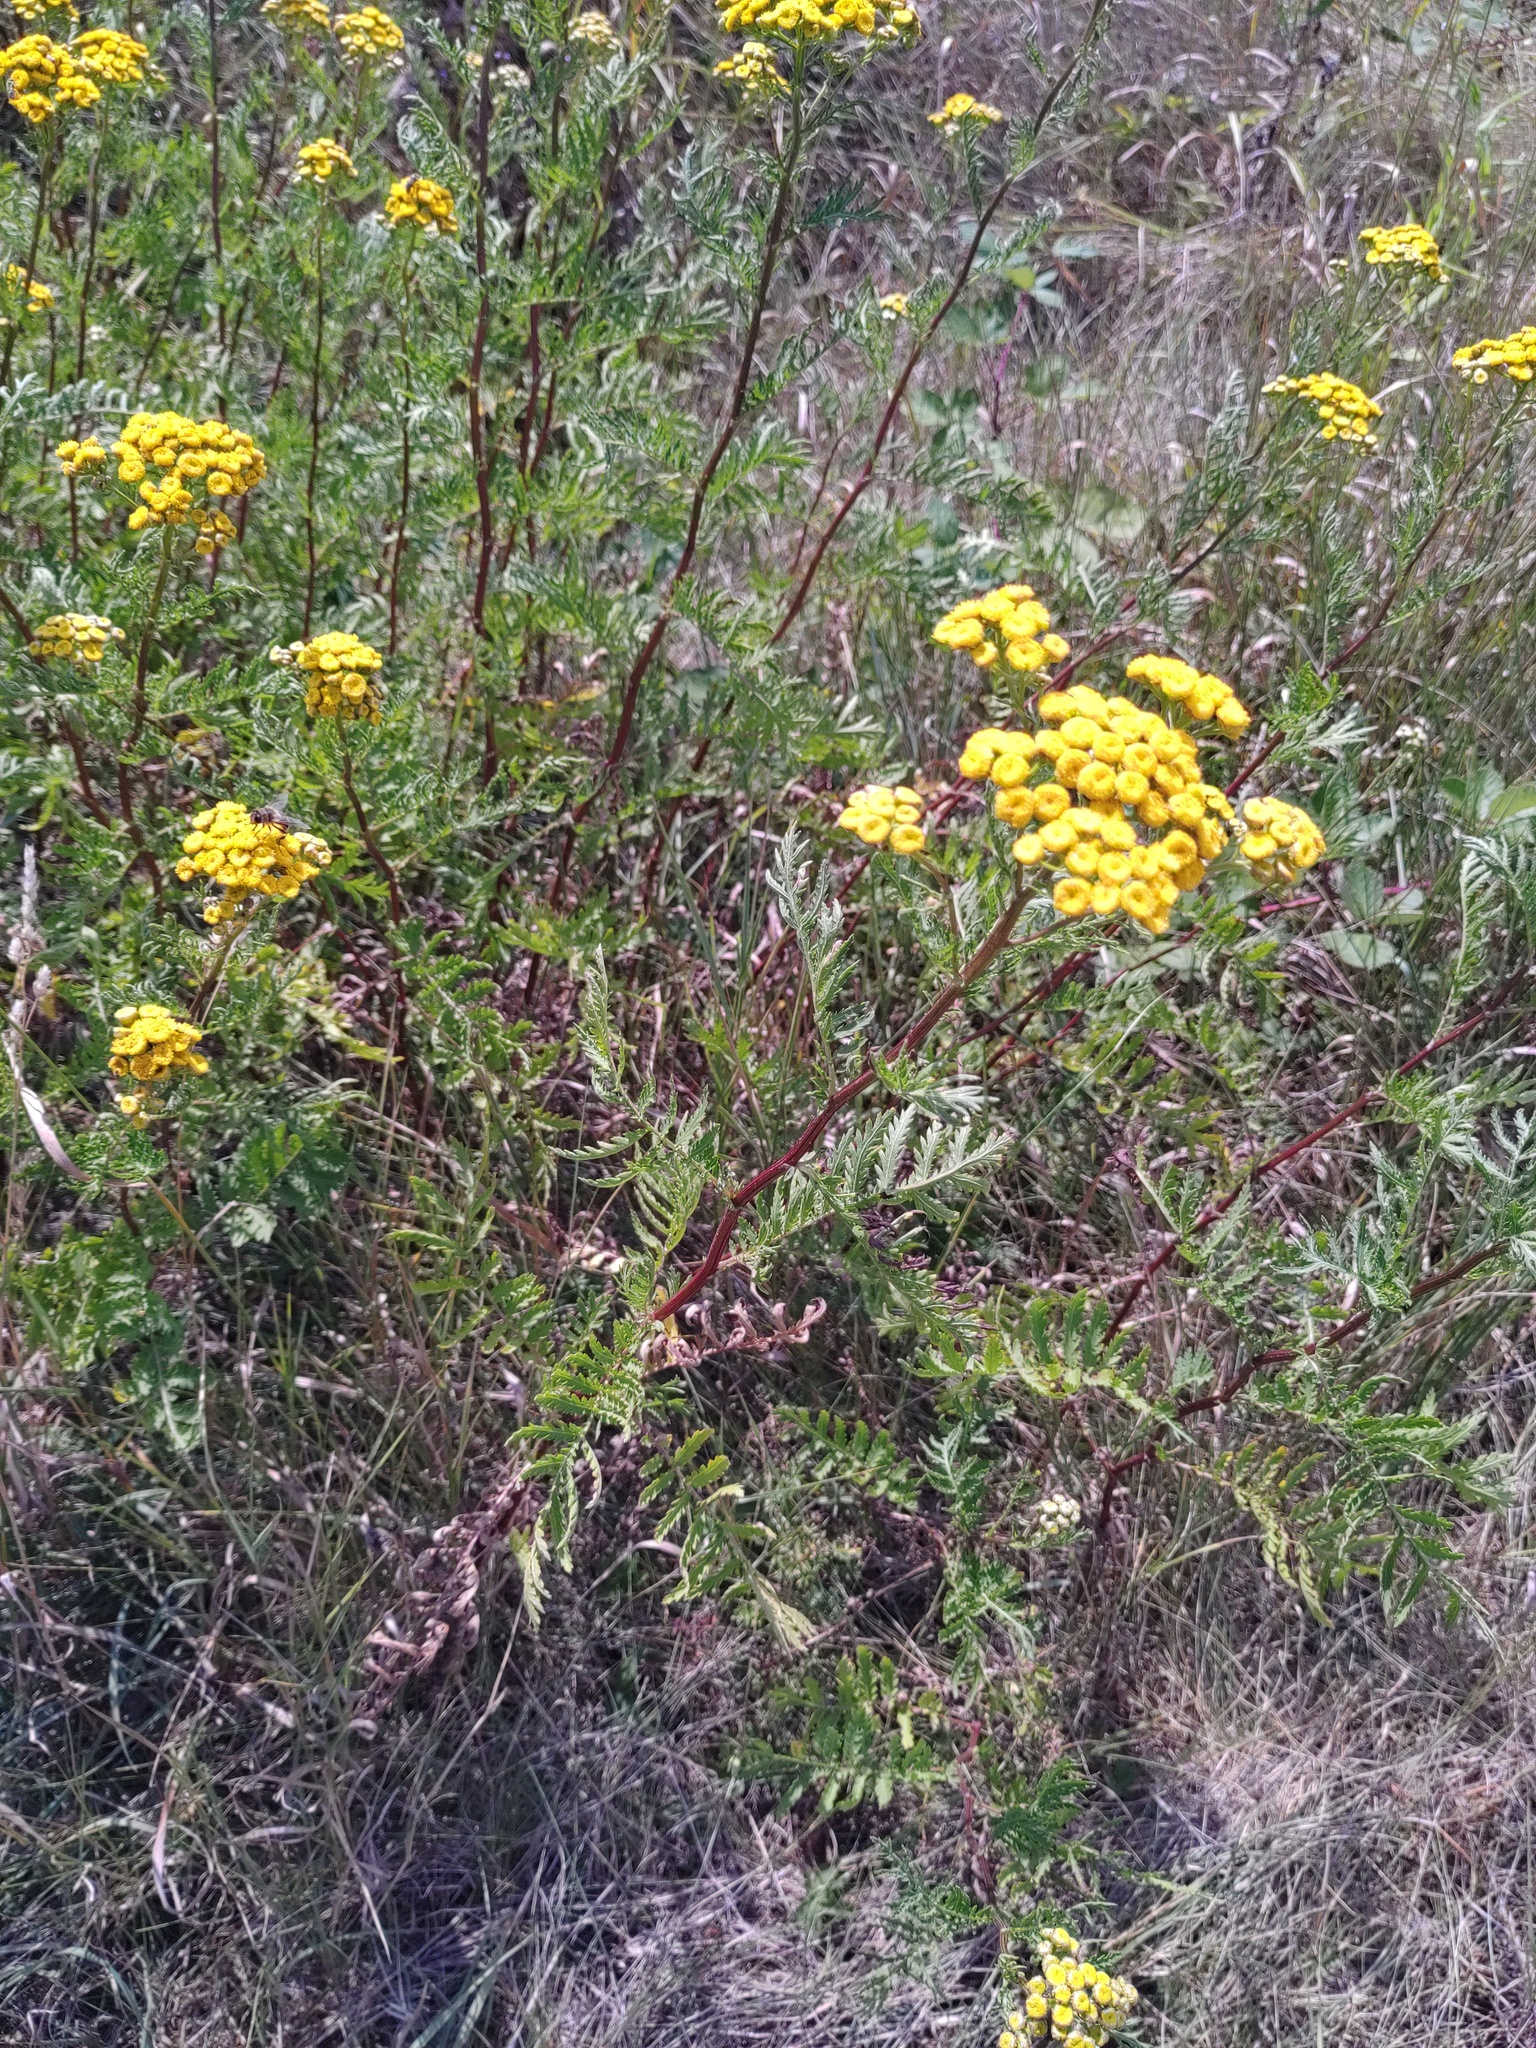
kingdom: Plantae
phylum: Tracheophyta
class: Magnoliopsida
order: Asterales
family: Asteraceae
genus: Tanacetum
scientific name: Tanacetum vulgare
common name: Common tansy
